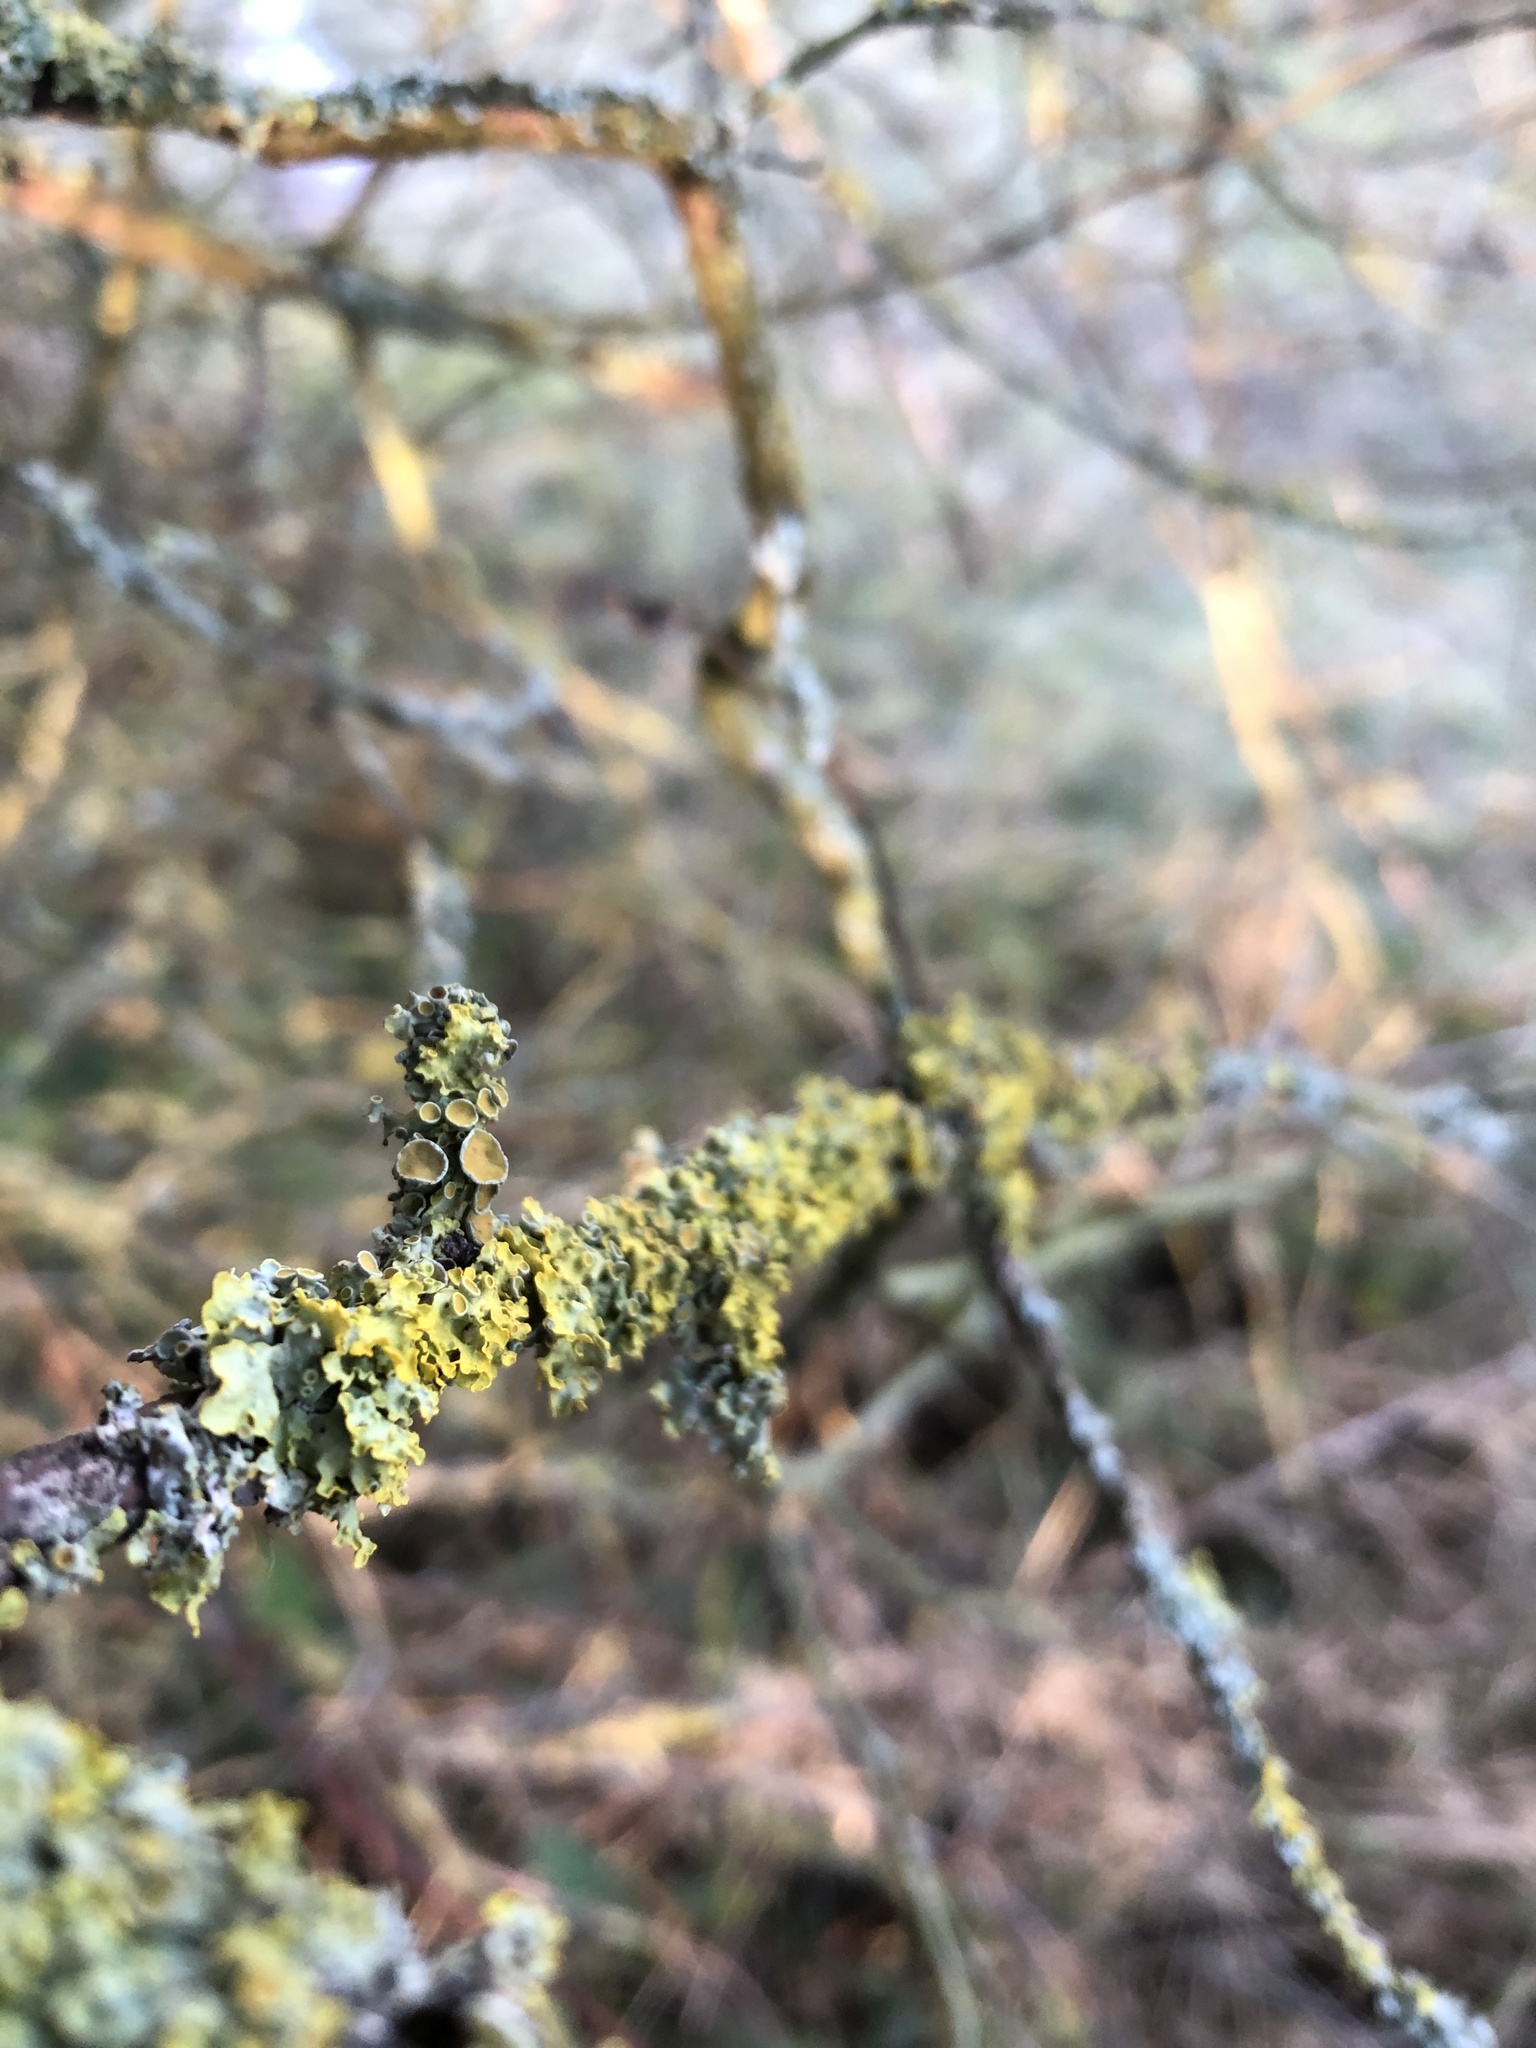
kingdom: Fungi
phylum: Ascomycota
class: Lecanoromycetes
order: Teloschistales
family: Teloschistaceae
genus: Xanthoria
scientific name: Xanthoria parietina
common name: Common orange lichen
